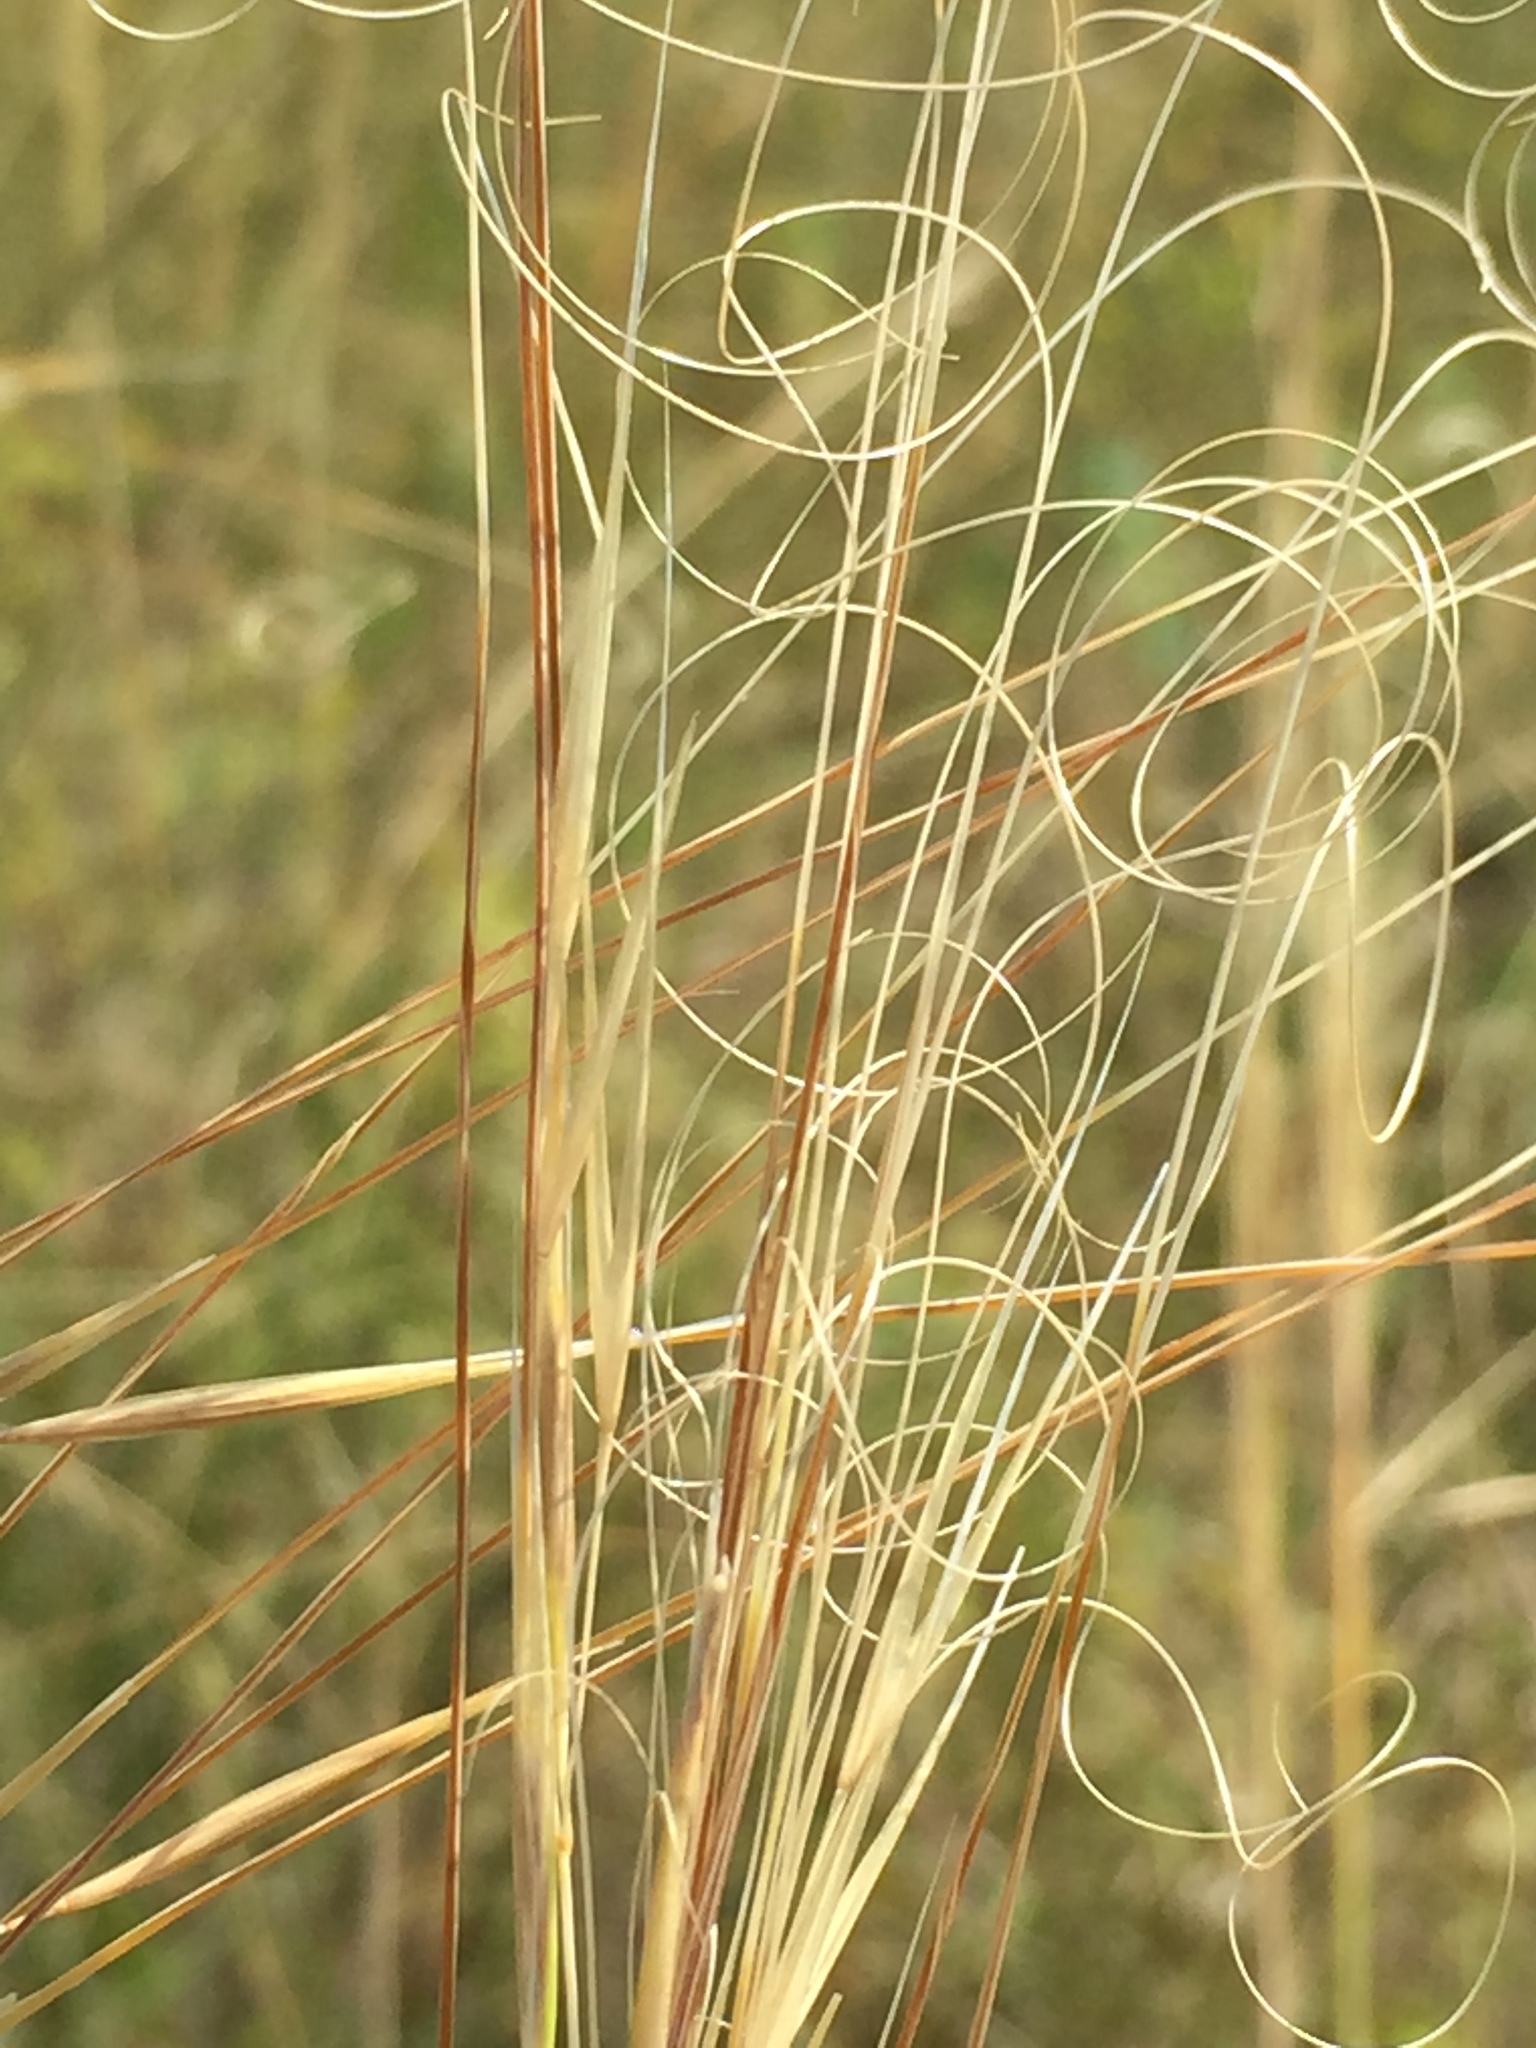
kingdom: Plantae
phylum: Tracheophyta
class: Liliopsida
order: Poales
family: Poaceae
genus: Stipa
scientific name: Stipa capillata
